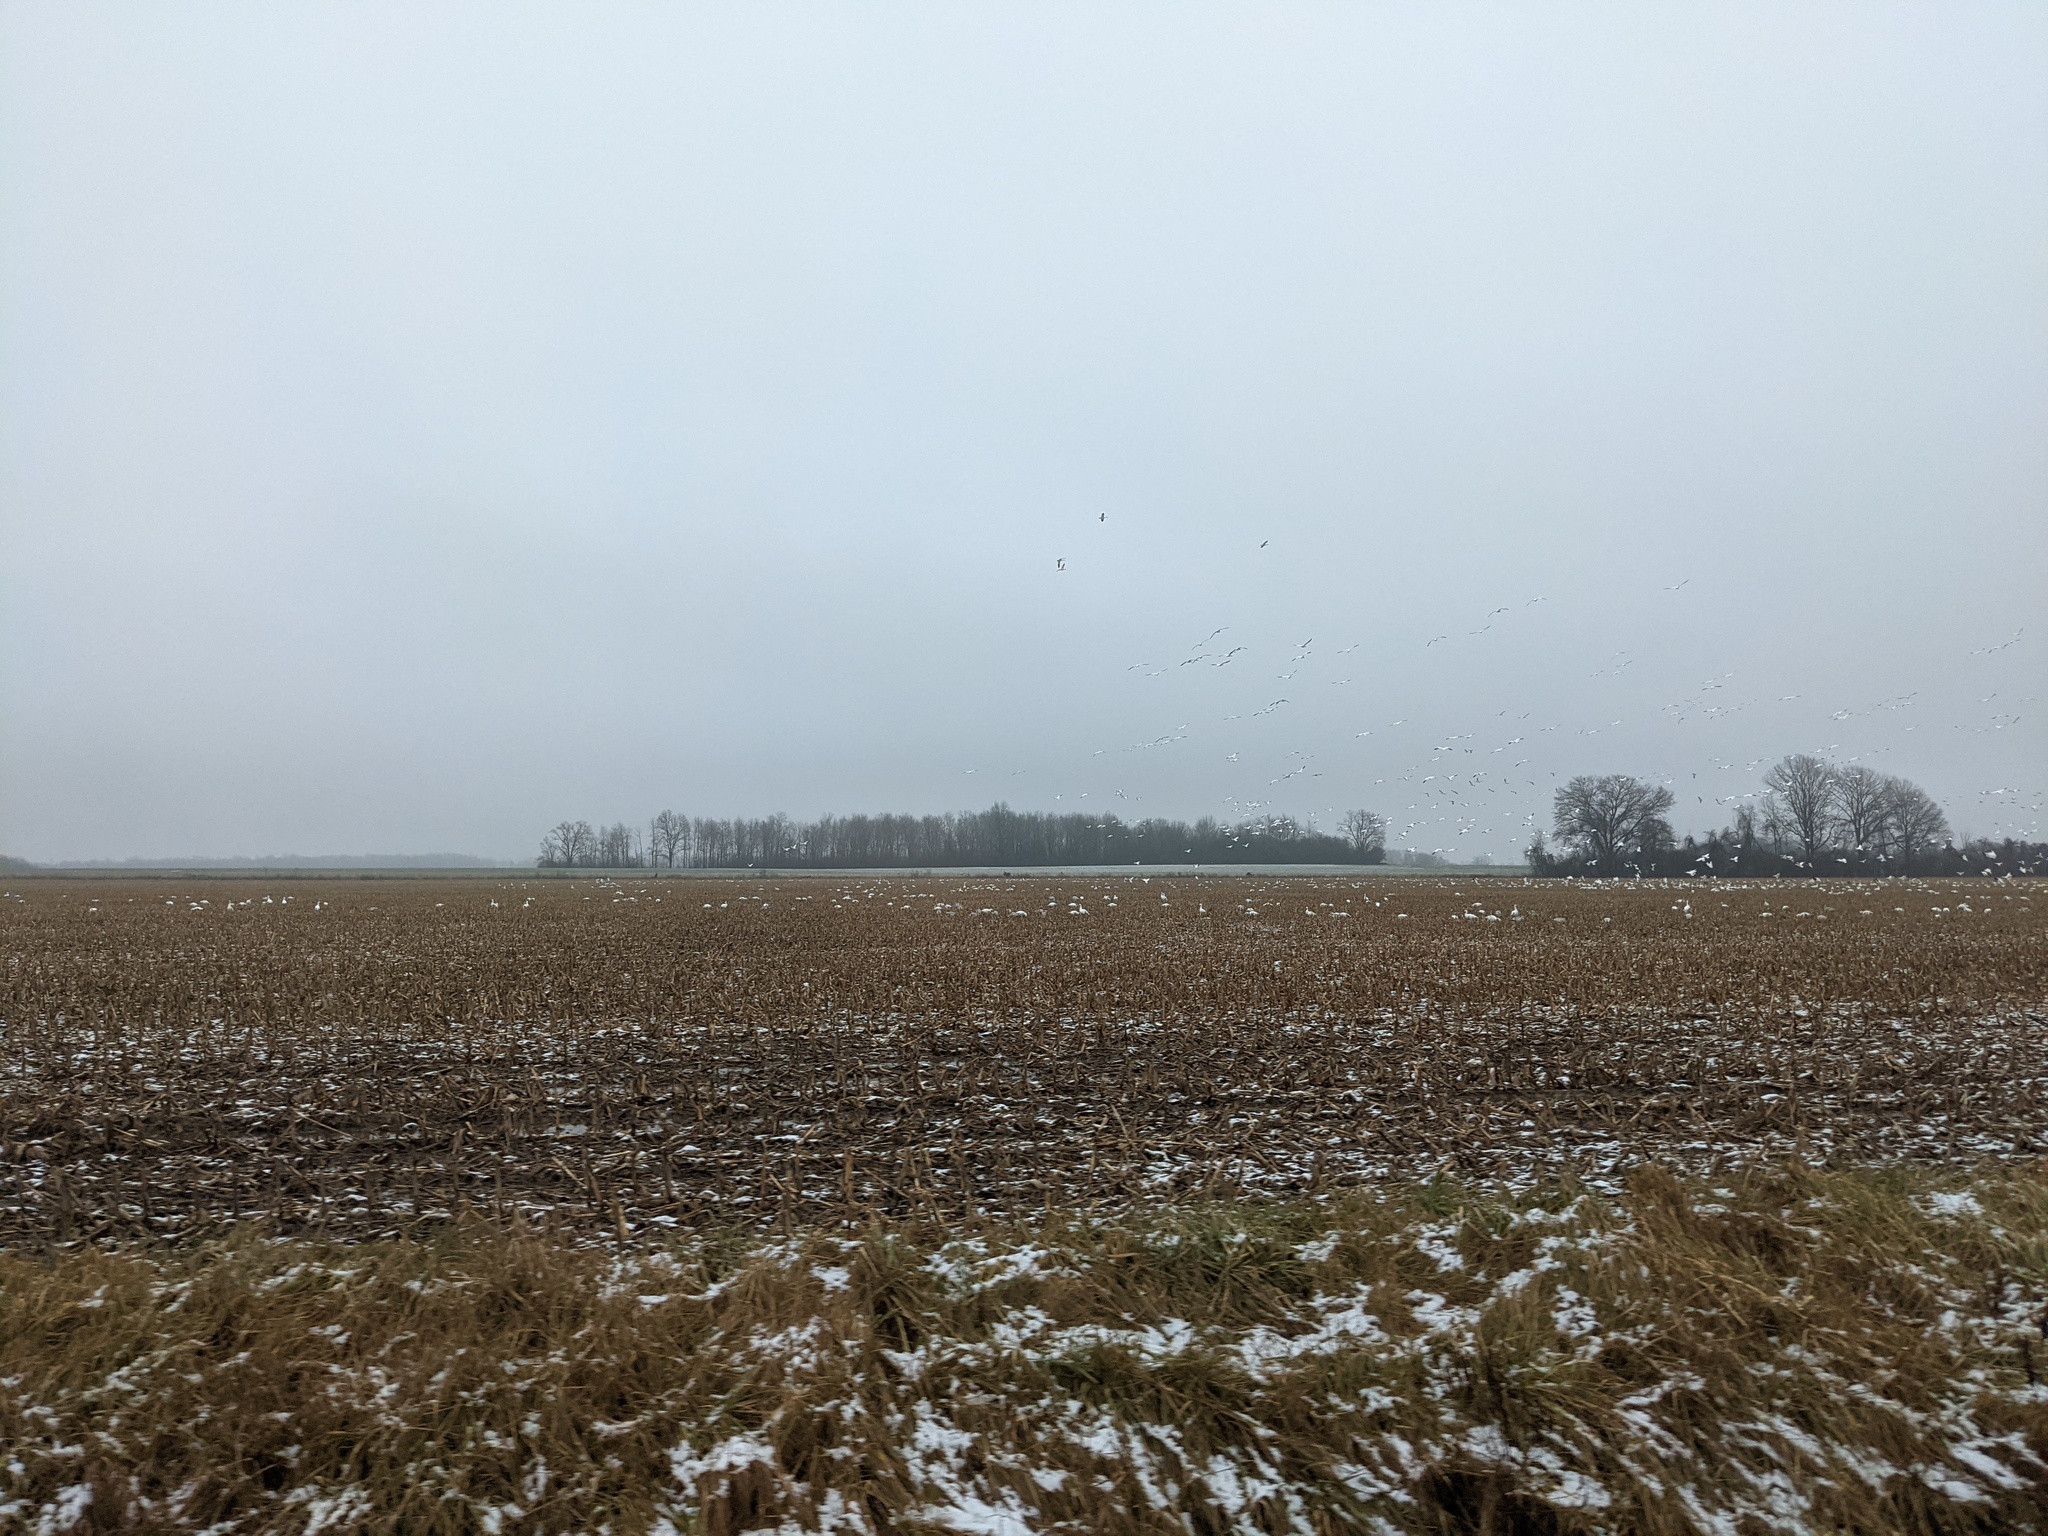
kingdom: Animalia
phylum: Chordata
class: Aves
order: Anseriformes
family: Anatidae
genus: Anser
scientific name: Anser caerulescens
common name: Snow goose
